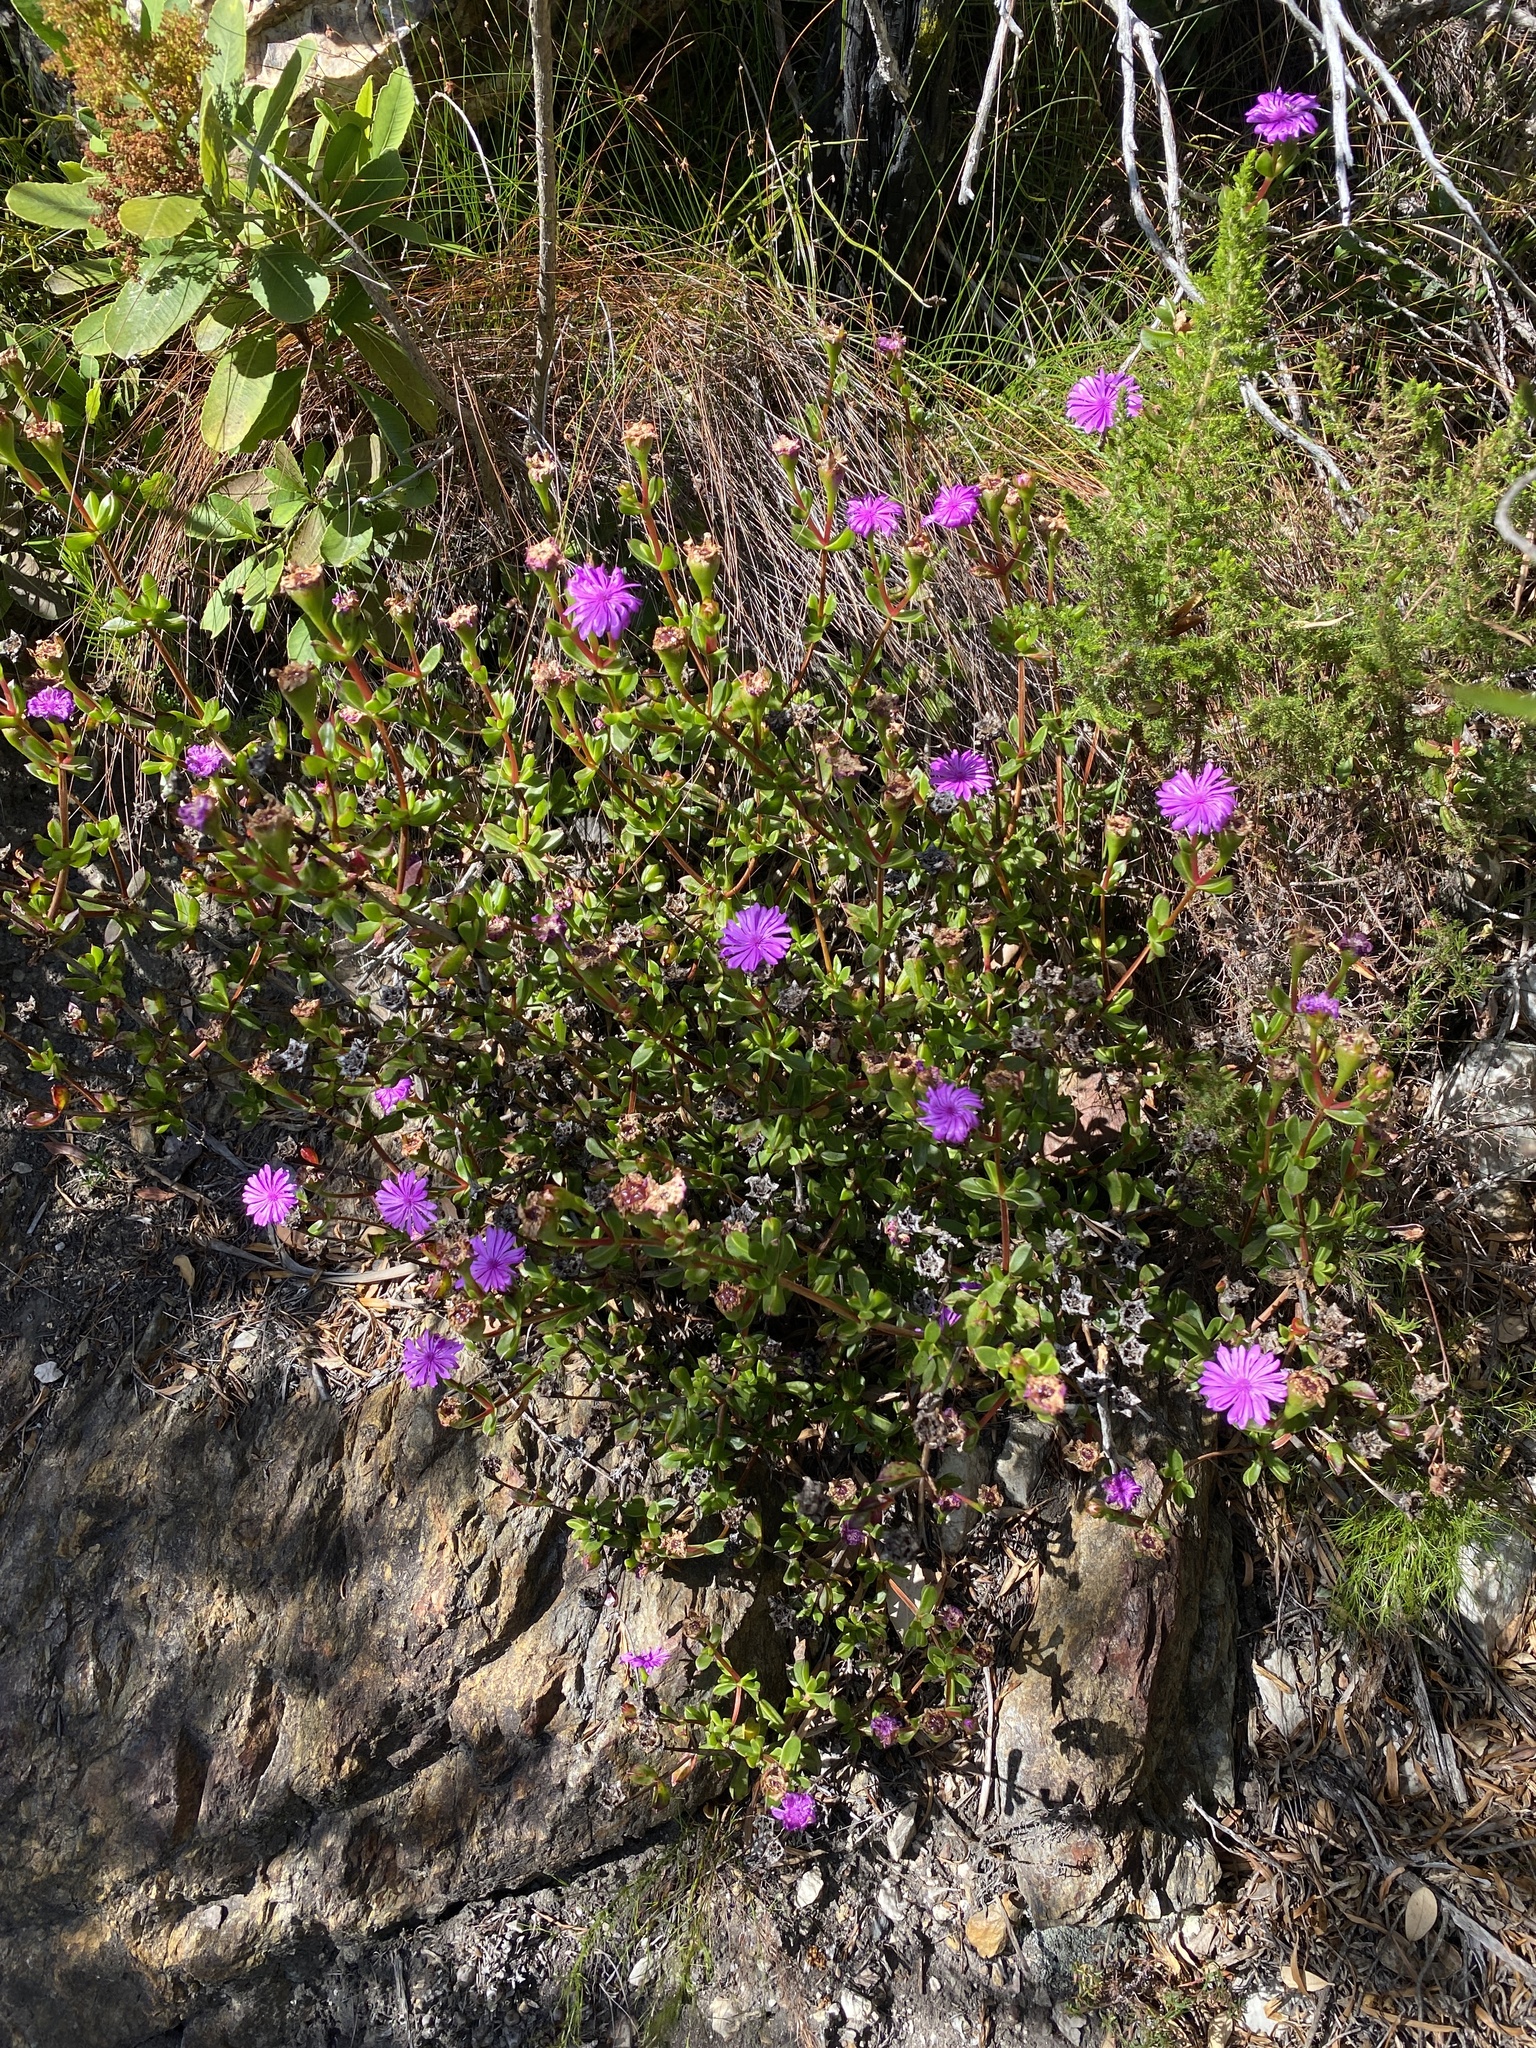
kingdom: Plantae
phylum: Tracheophyta
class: Magnoliopsida
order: Caryophyllales
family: Aizoaceae
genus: Erepsia
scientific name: Erepsia inclaudens
